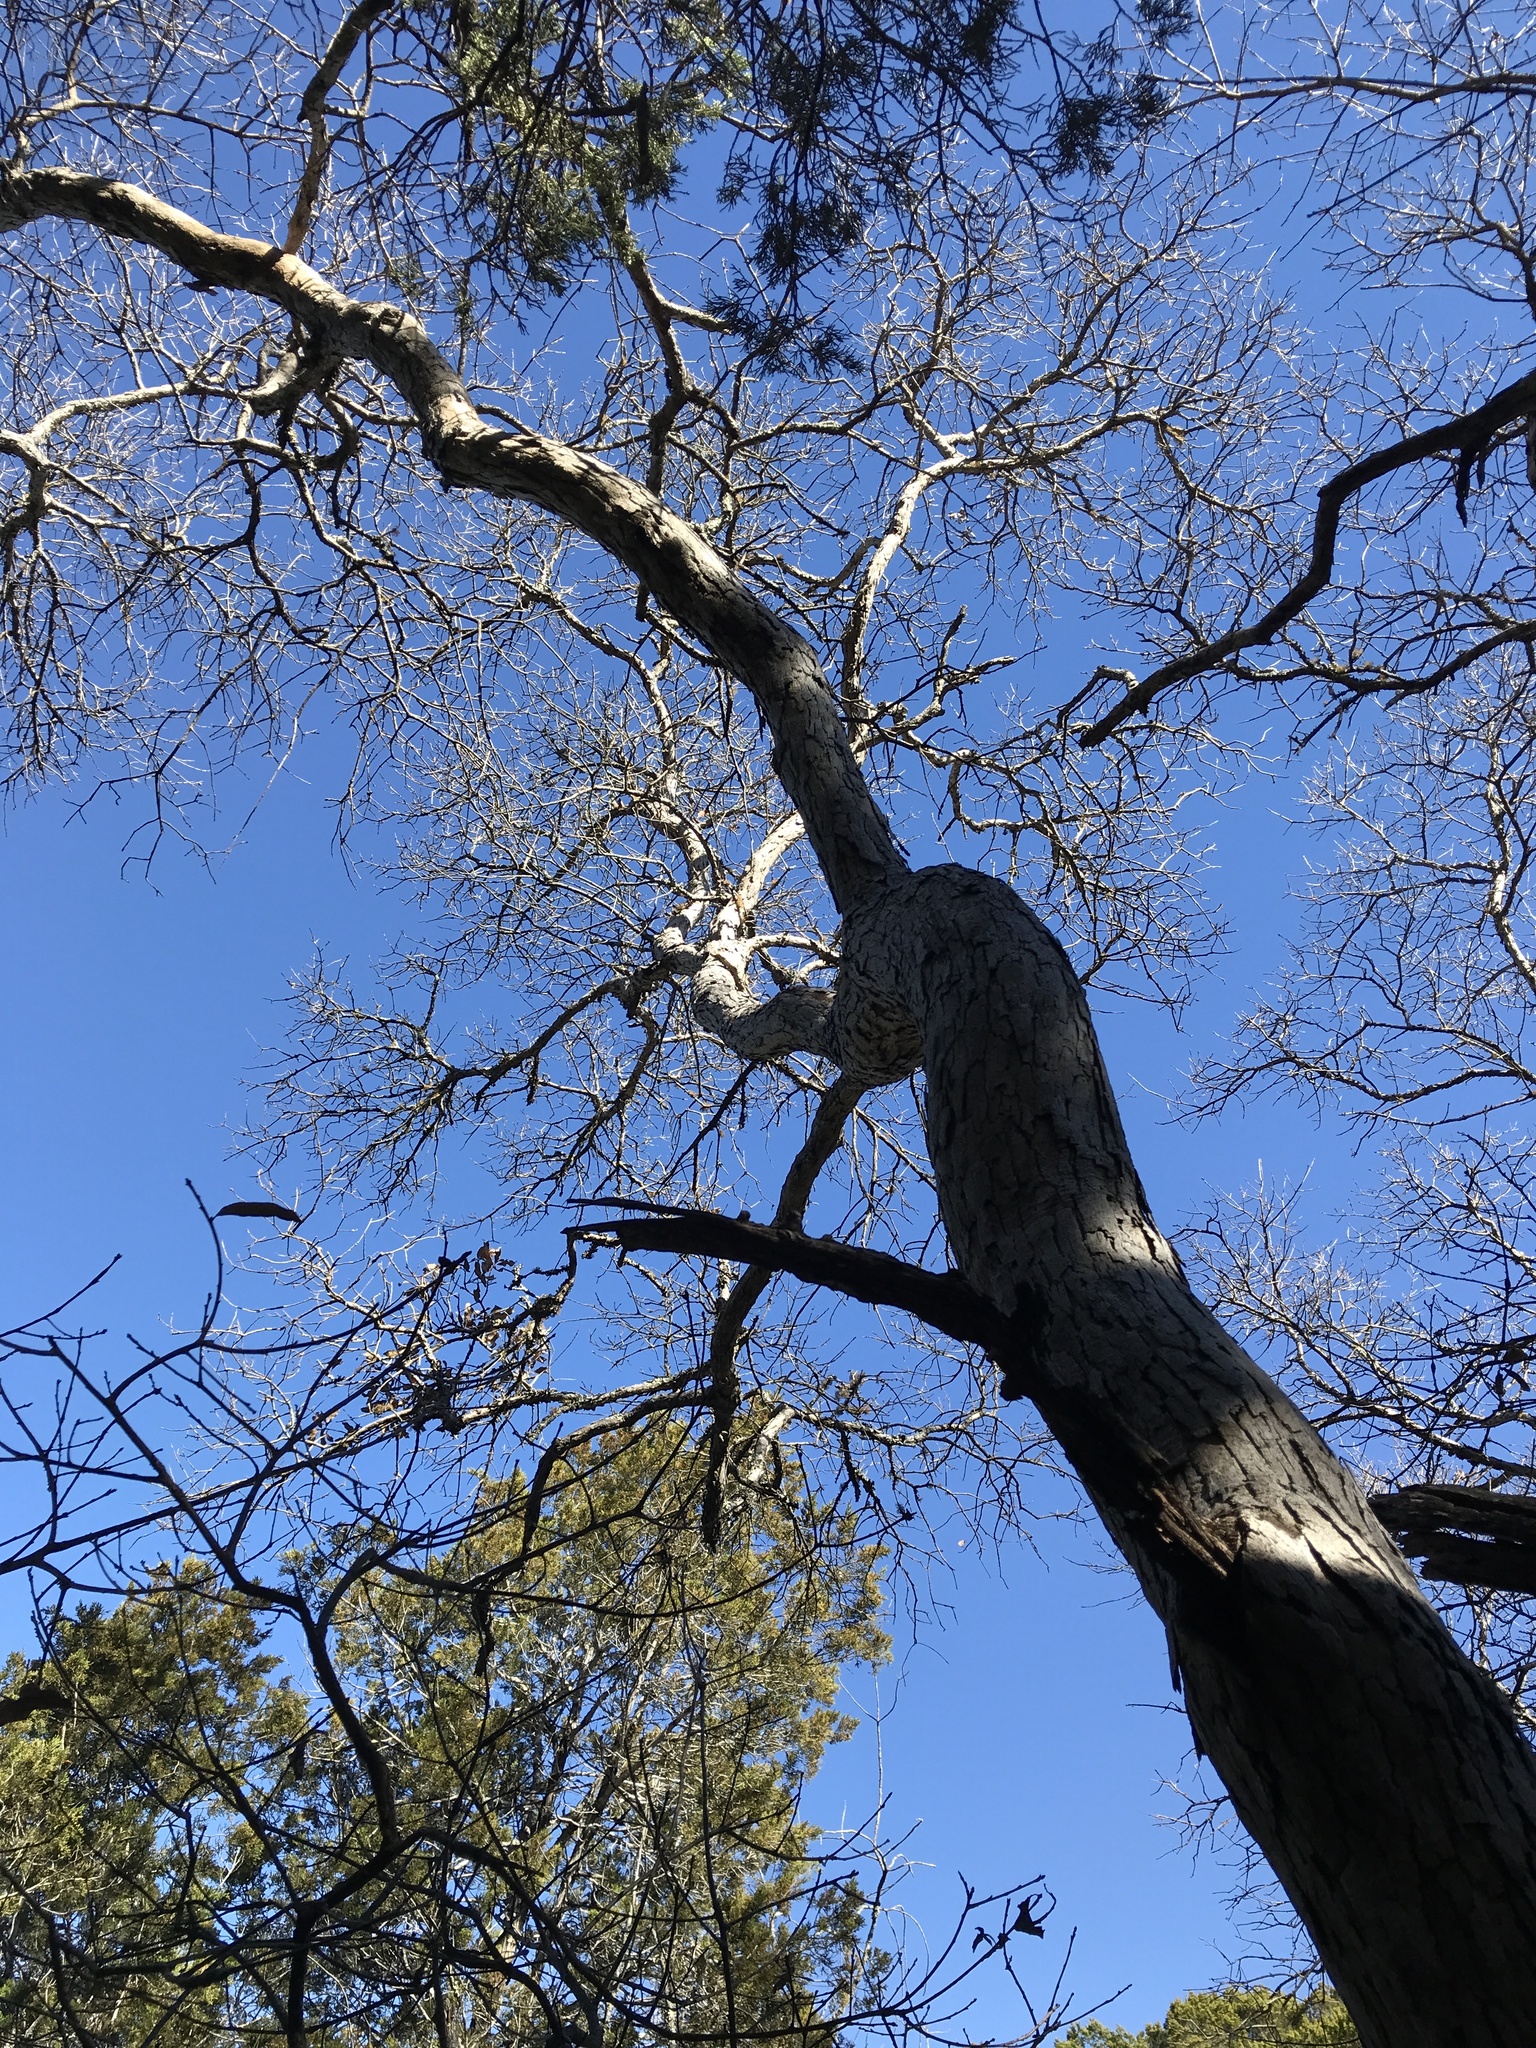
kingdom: Plantae
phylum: Tracheophyta
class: Magnoliopsida
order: Fagales
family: Fagaceae
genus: Quercus
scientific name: Quercus sinuata
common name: Durand oak
